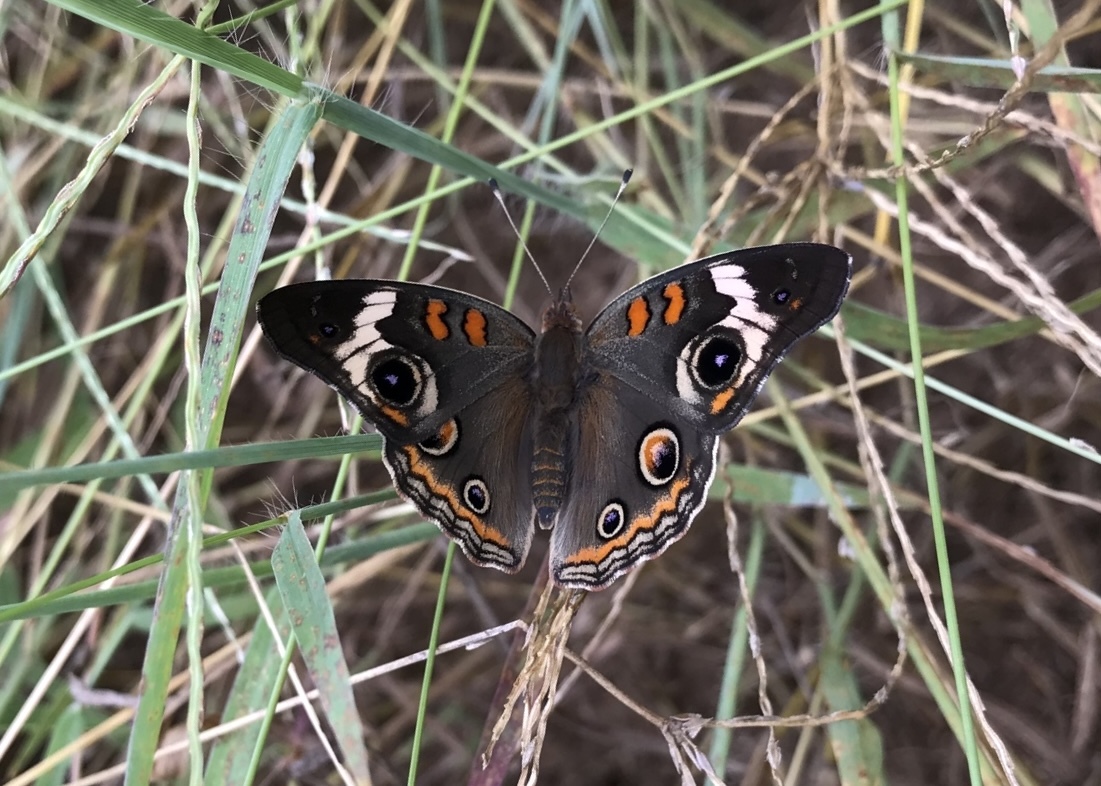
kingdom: Animalia
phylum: Arthropoda
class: Insecta
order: Lepidoptera
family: Nymphalidae
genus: Junonia
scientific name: Junonia coenia
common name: Common buckeye
